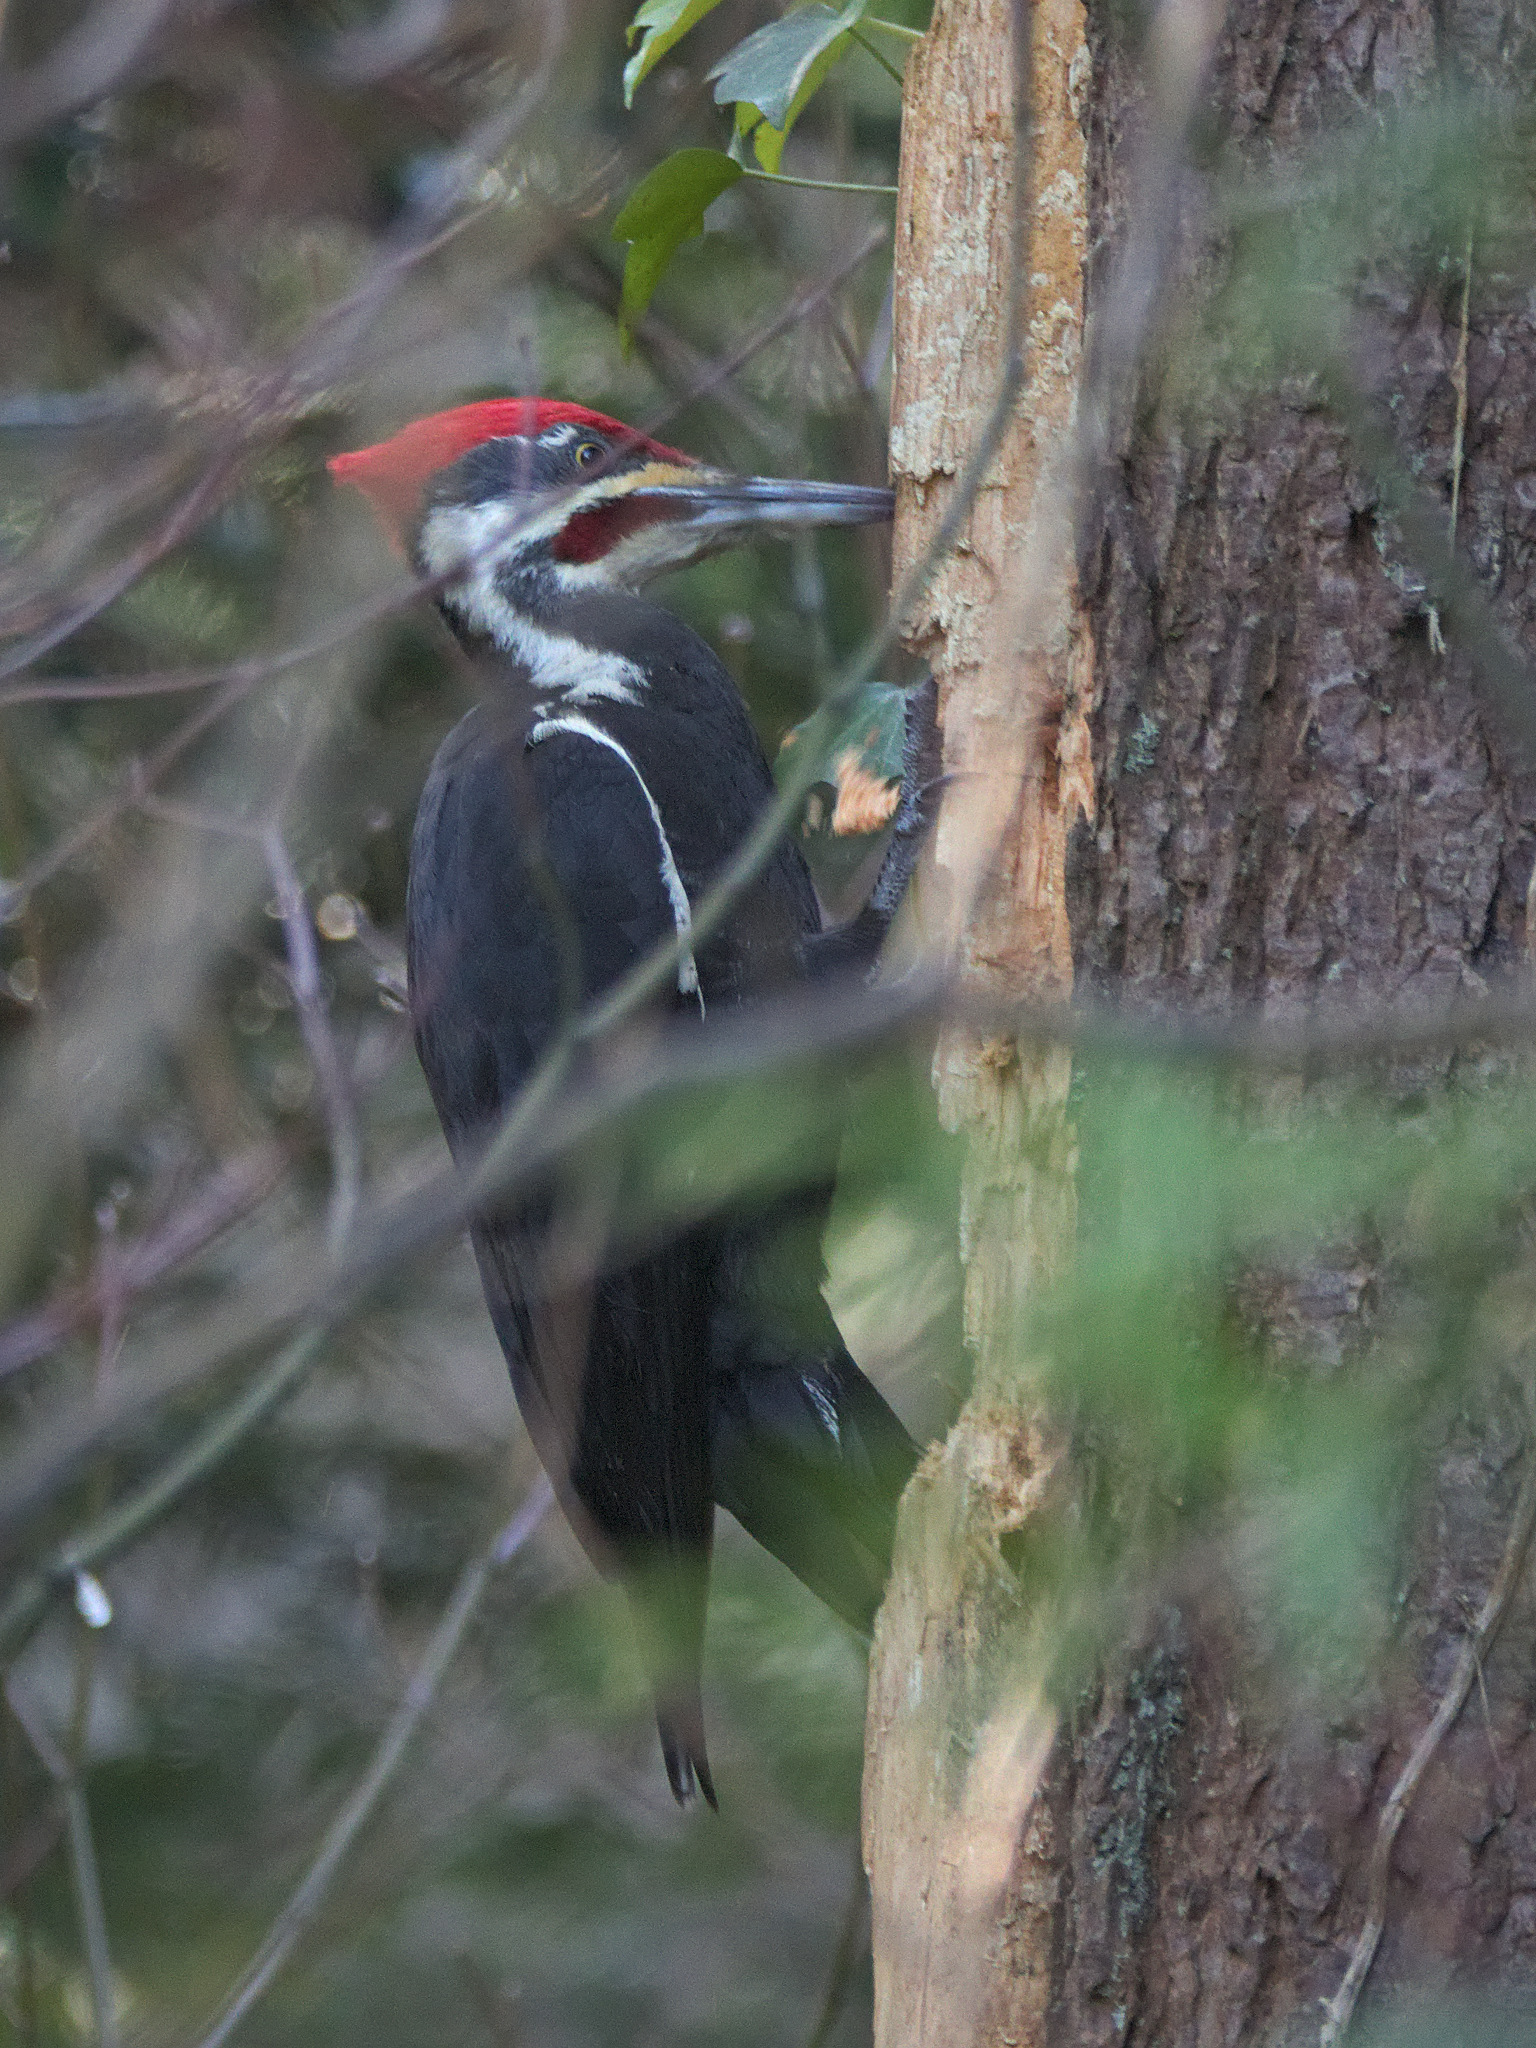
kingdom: Animalia
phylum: Chordata
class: Aves
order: Piciformes
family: Picidae
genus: Dryocopus
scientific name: Dryocopus pileatus
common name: Pileated woodpecker
